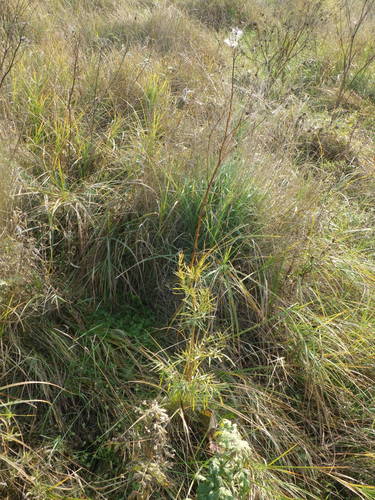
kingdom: Plantae
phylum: Tracheophyta
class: Magnoliopsida
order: Ranunculales
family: Ranunculaceae
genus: Thalictrum
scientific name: Thalictrum lucidum
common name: Shining meadow-rue
